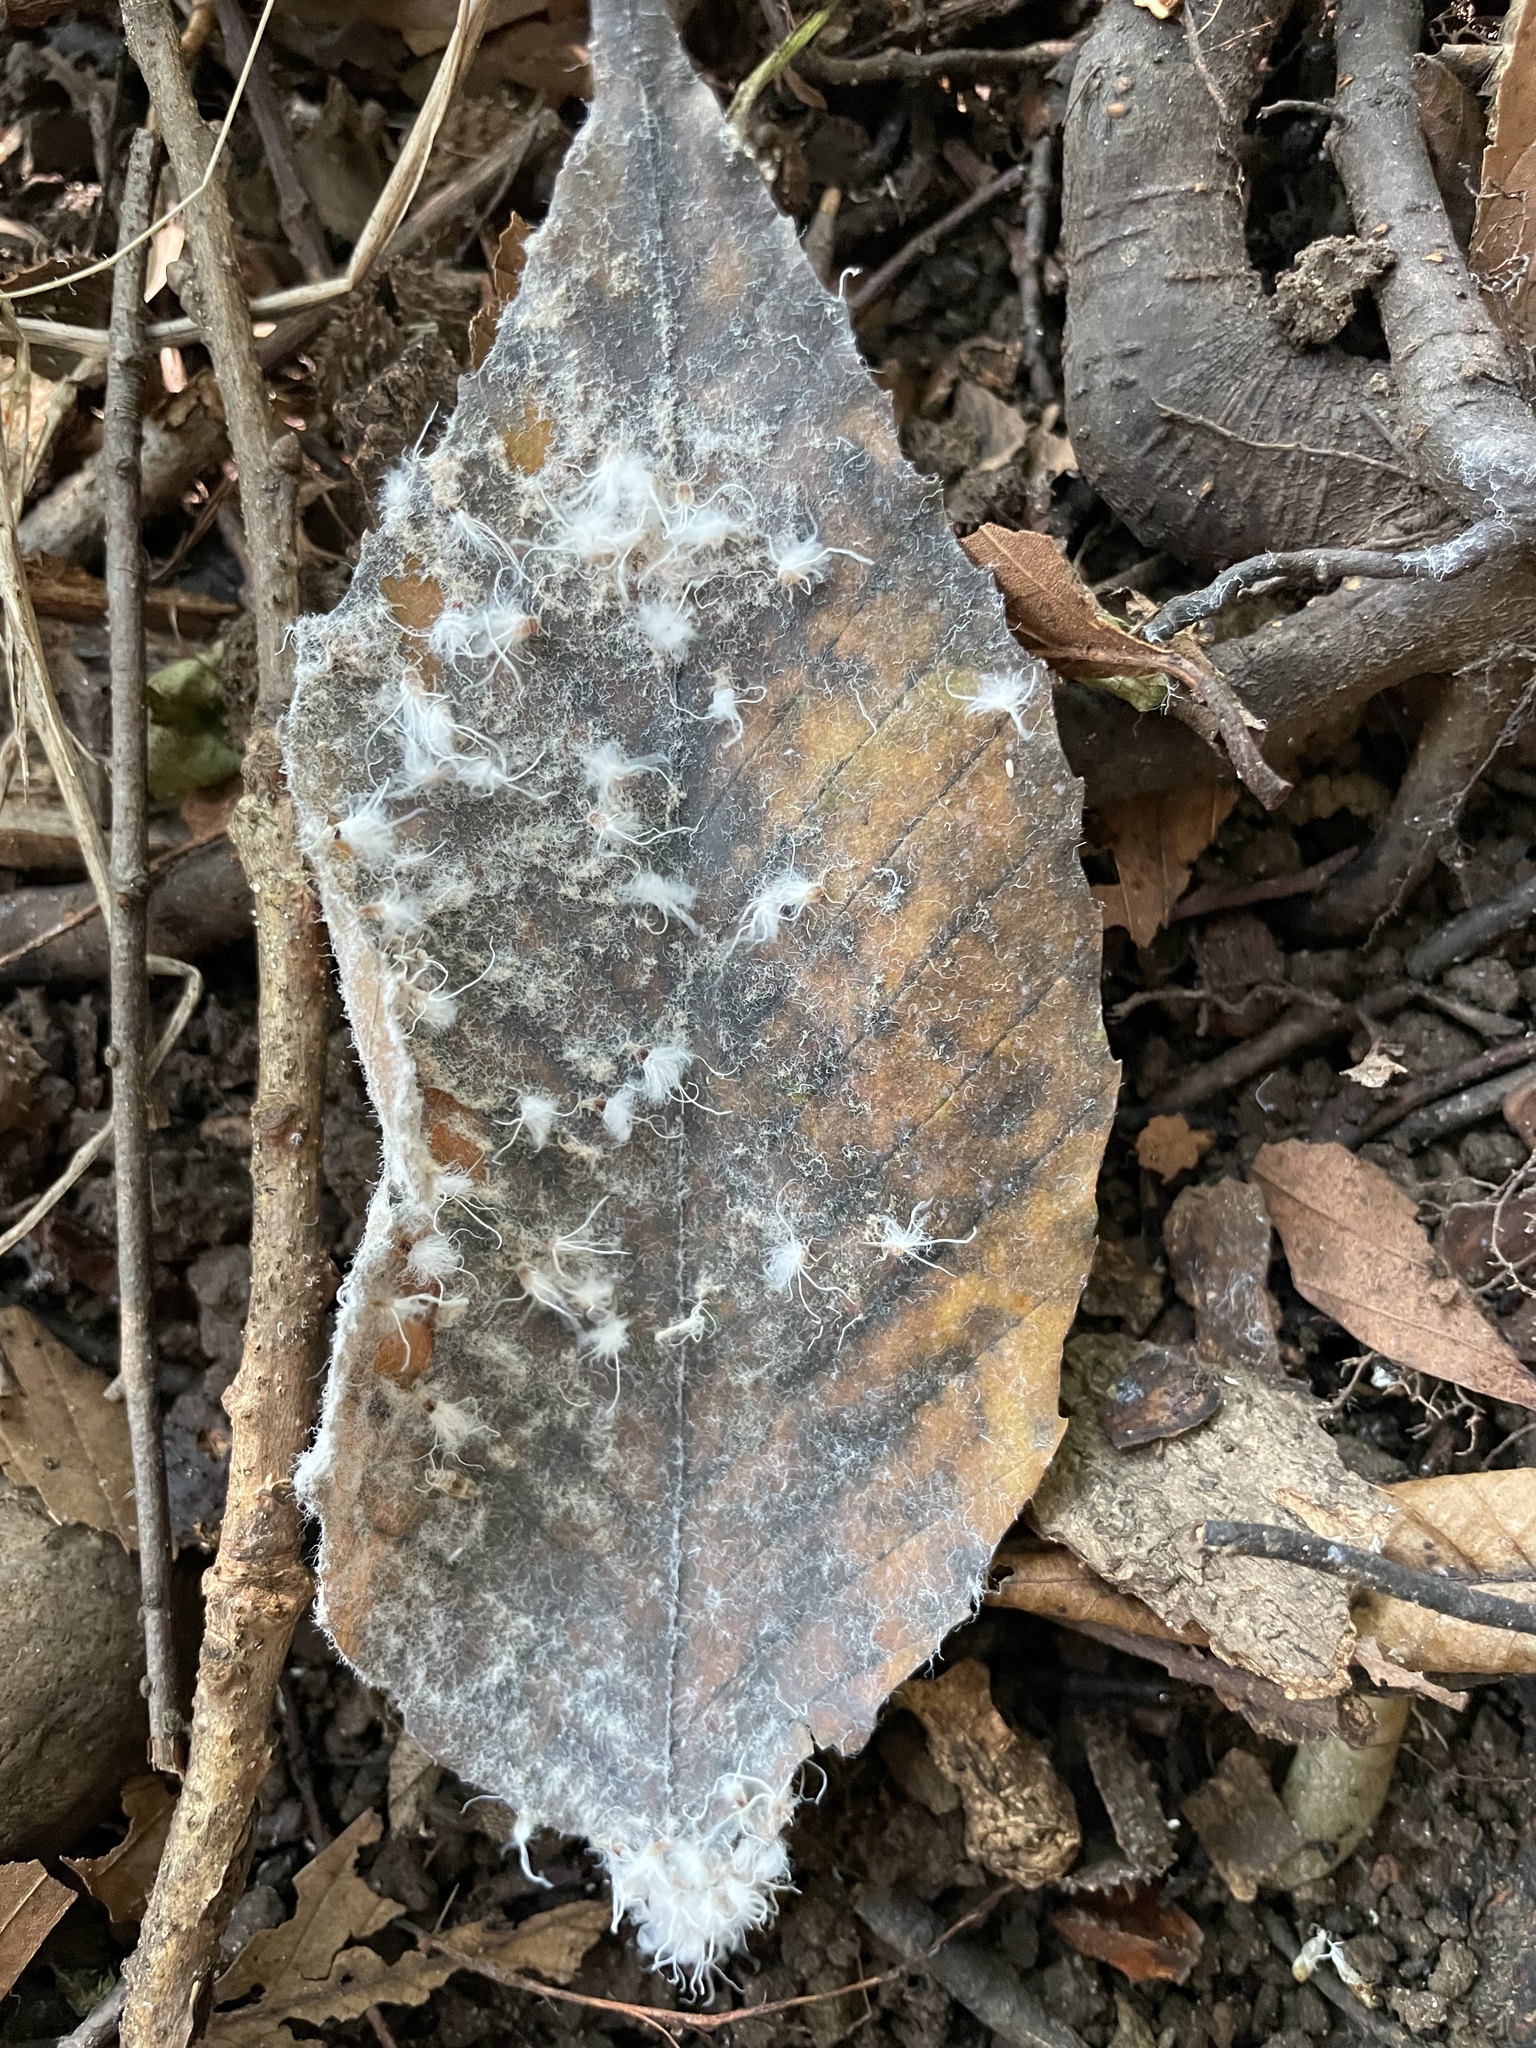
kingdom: Animalia
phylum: Arthropoda
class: Insecta
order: Hemiptera
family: Aphididae
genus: Grylloprociphilus
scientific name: Grylloprociphilus imbricator
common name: Beech blight aphid
